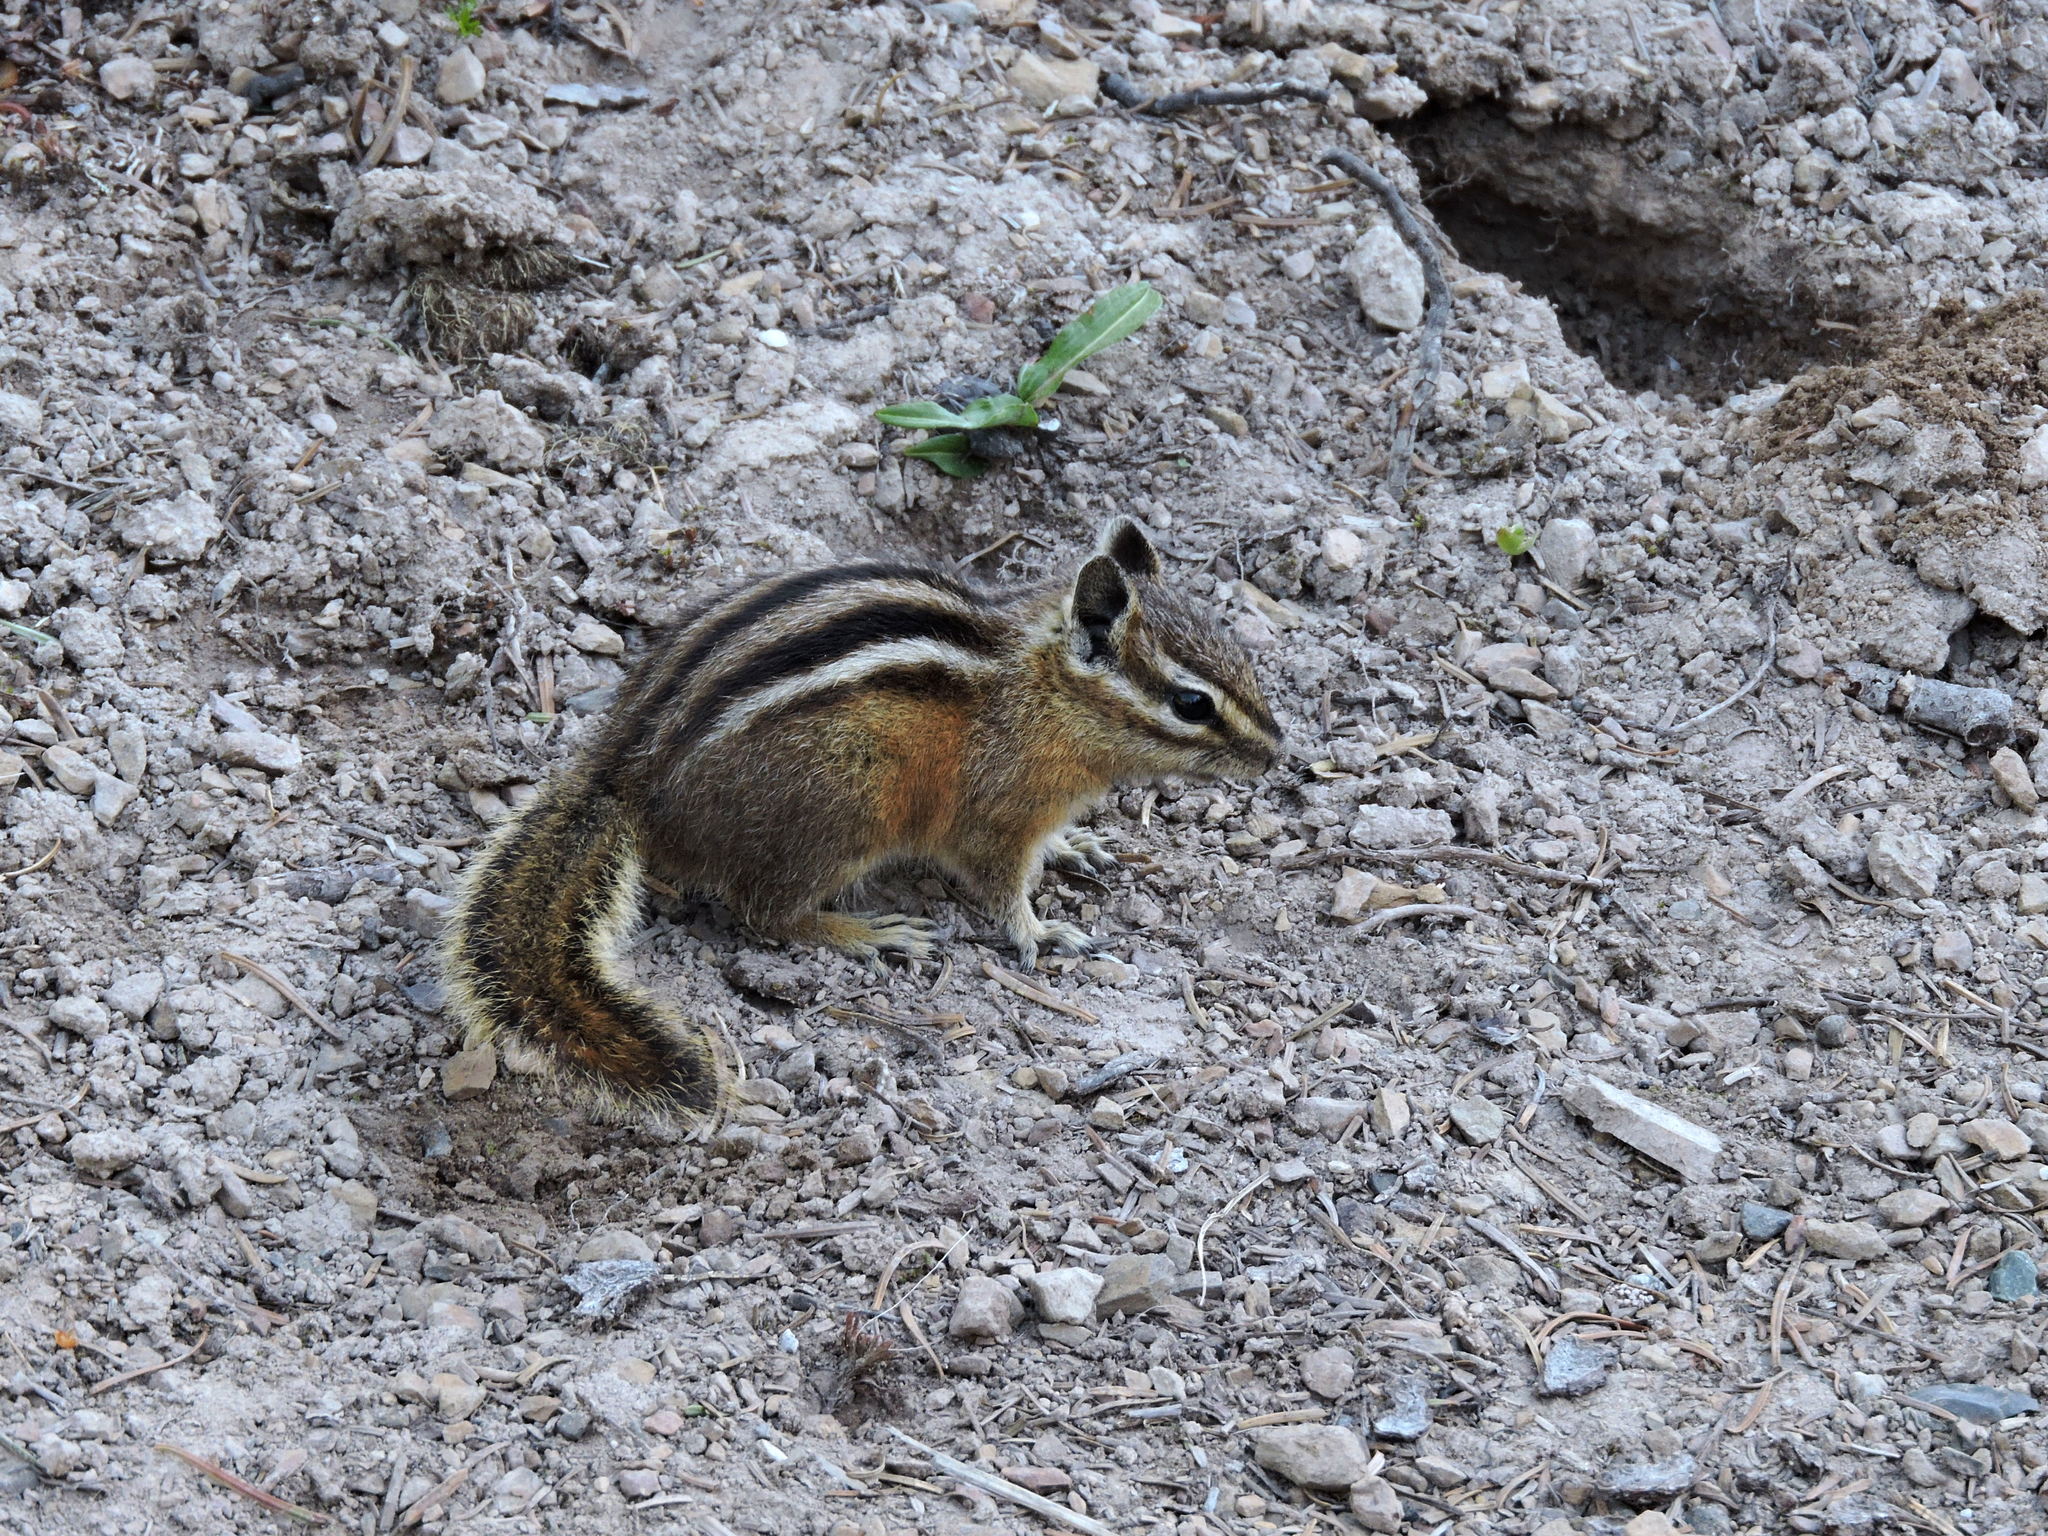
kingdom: Animalia
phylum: Chordata
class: Mammalia
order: Rodentia
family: Sciuridae
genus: Tamias
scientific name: Tamias amoenus
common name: Yellow-pine chipmunk
